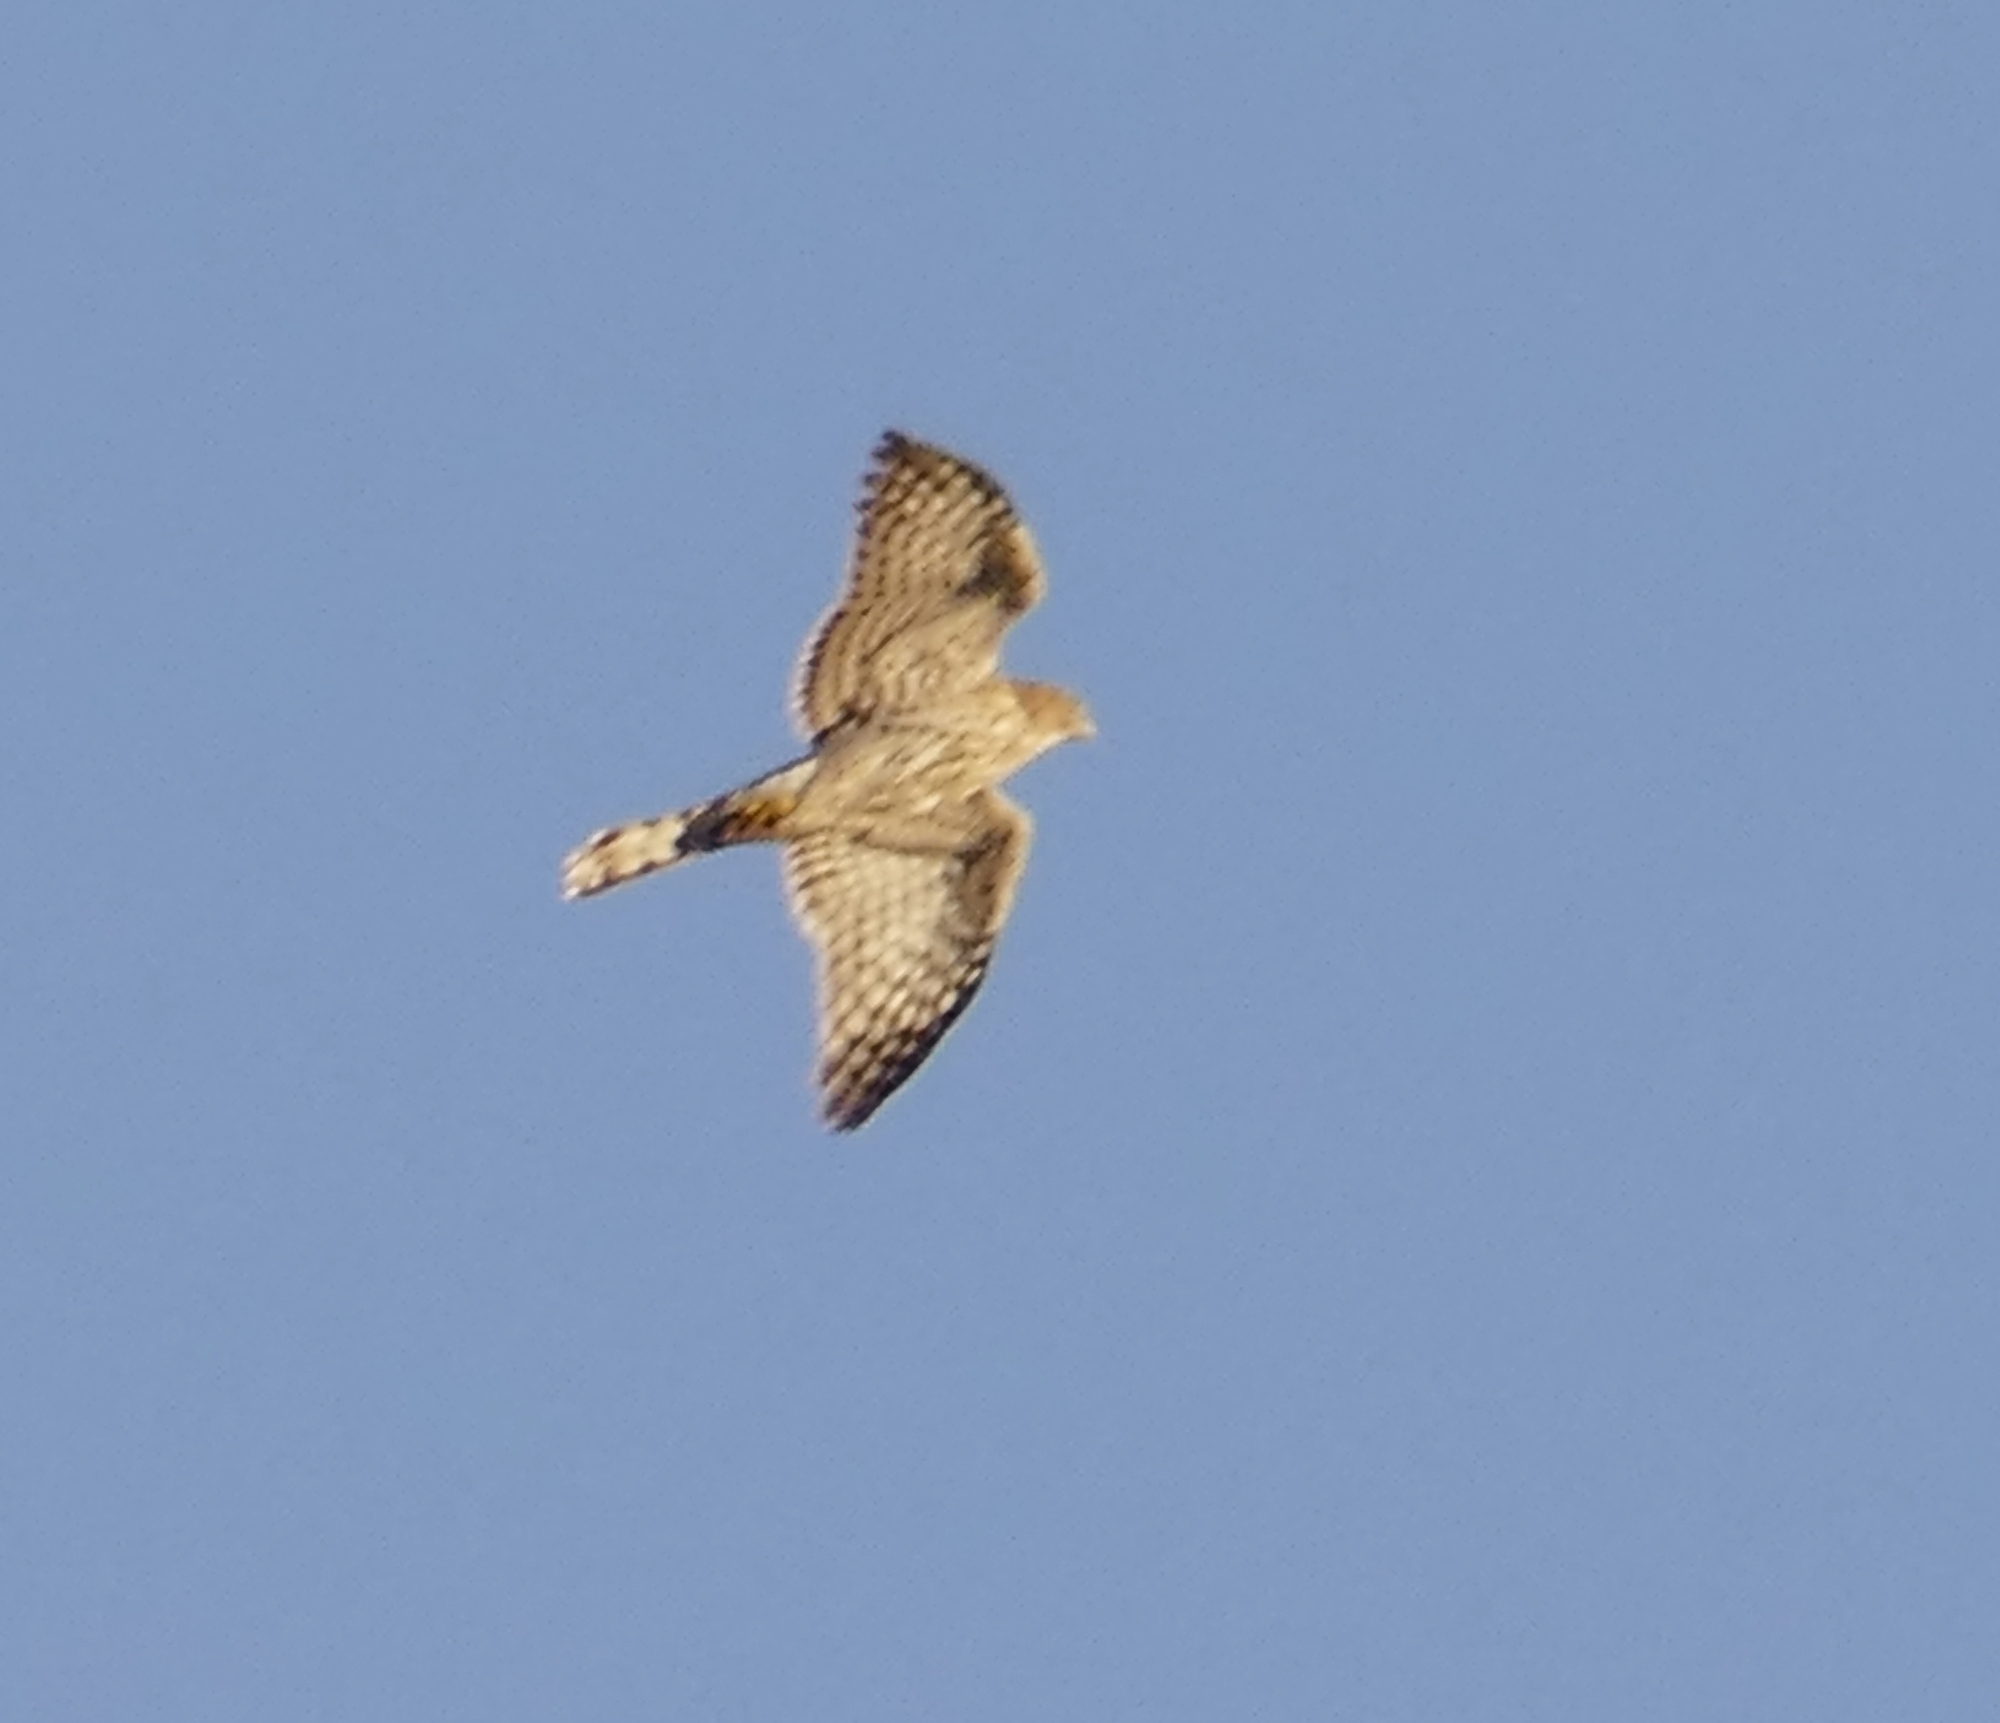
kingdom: Animalia
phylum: Chordata
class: Aves
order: Accipitriformes
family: Accipitridae
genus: Accipiter
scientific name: Accipiter cooperii
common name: Cooper's hawk
